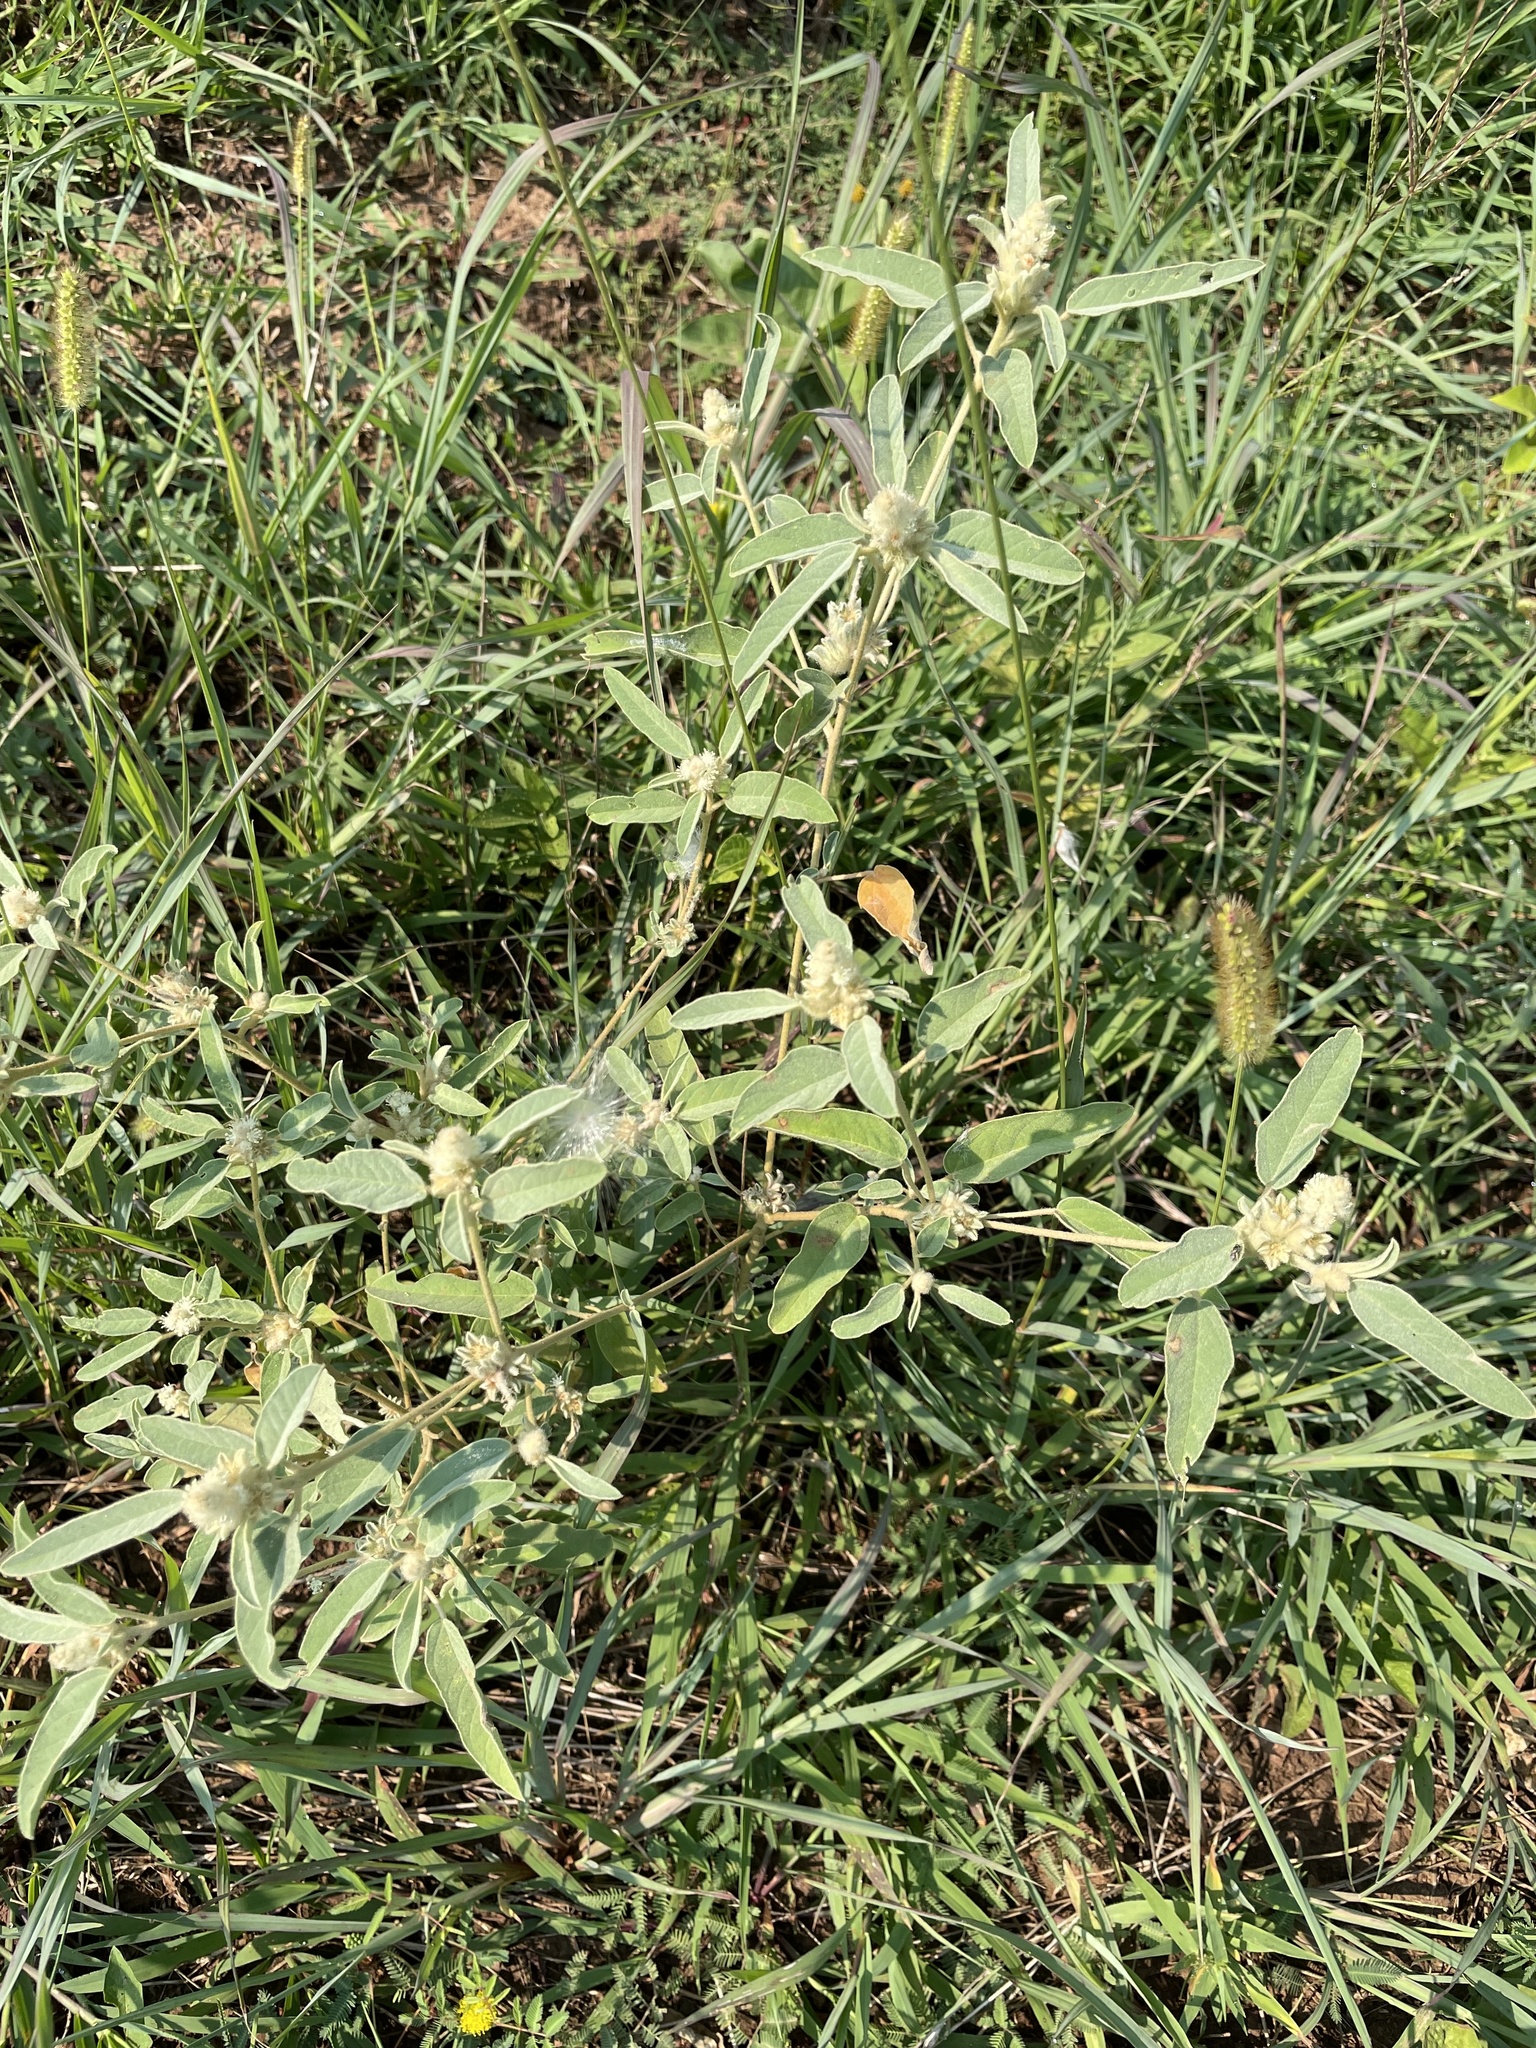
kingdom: Plantae
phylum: Tracheophyta
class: Magnoliopsida
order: Malpighiales
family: Euphorbiaceae
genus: Croton
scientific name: Croton capitatus
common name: Woolly croton
